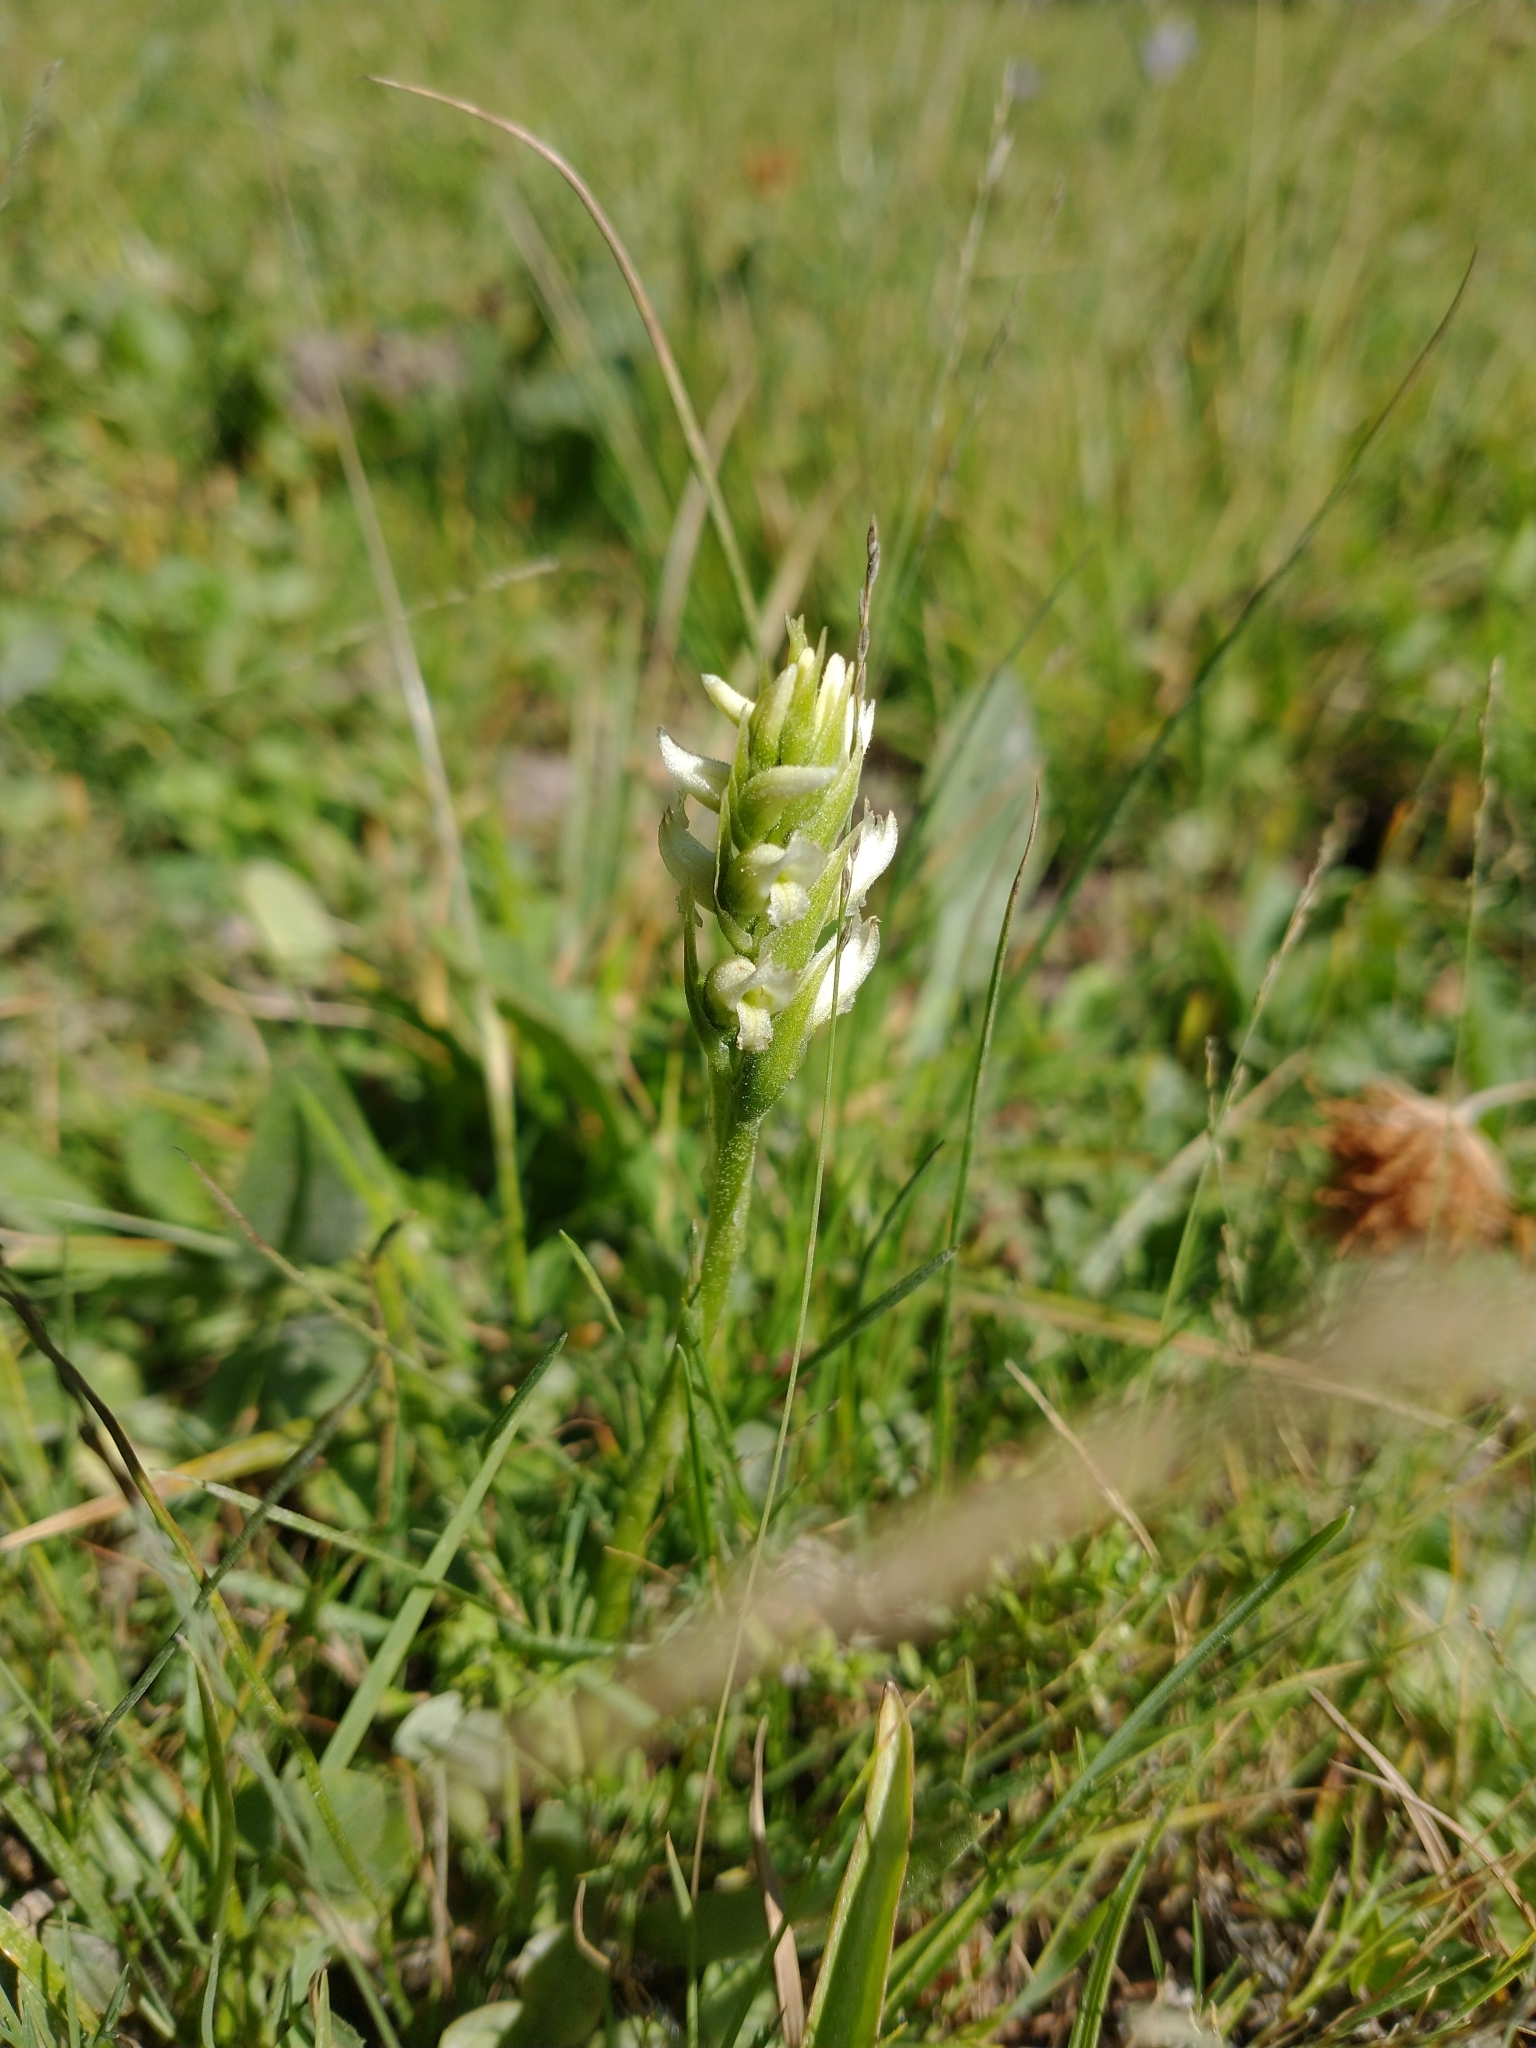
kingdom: Plantae
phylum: Tracheophyta
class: Liliopsida
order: Asparagales
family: Orchidaceae
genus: Spiranthes
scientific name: Spiranthes romanzoffiana
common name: Irish lady's-tresses
